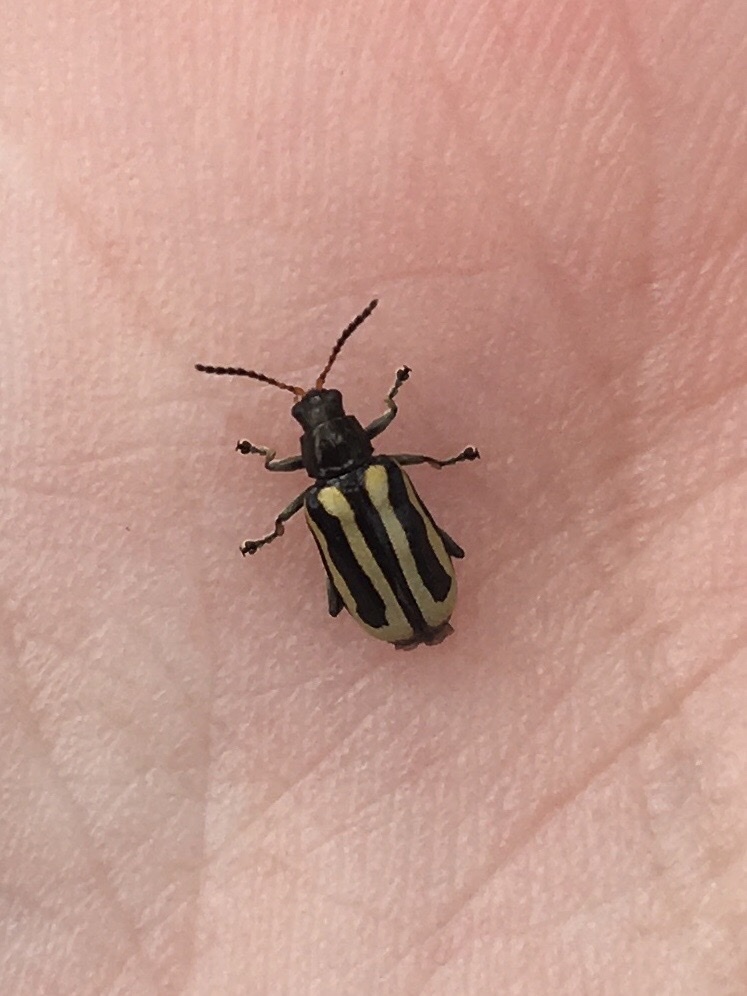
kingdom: Animalia
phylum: Arthropoda
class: Insecta
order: Coleoptera
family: Chrysomelidae
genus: Agasicles
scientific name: Agasicles hygrophila
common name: Alligatorweed flea beetle
